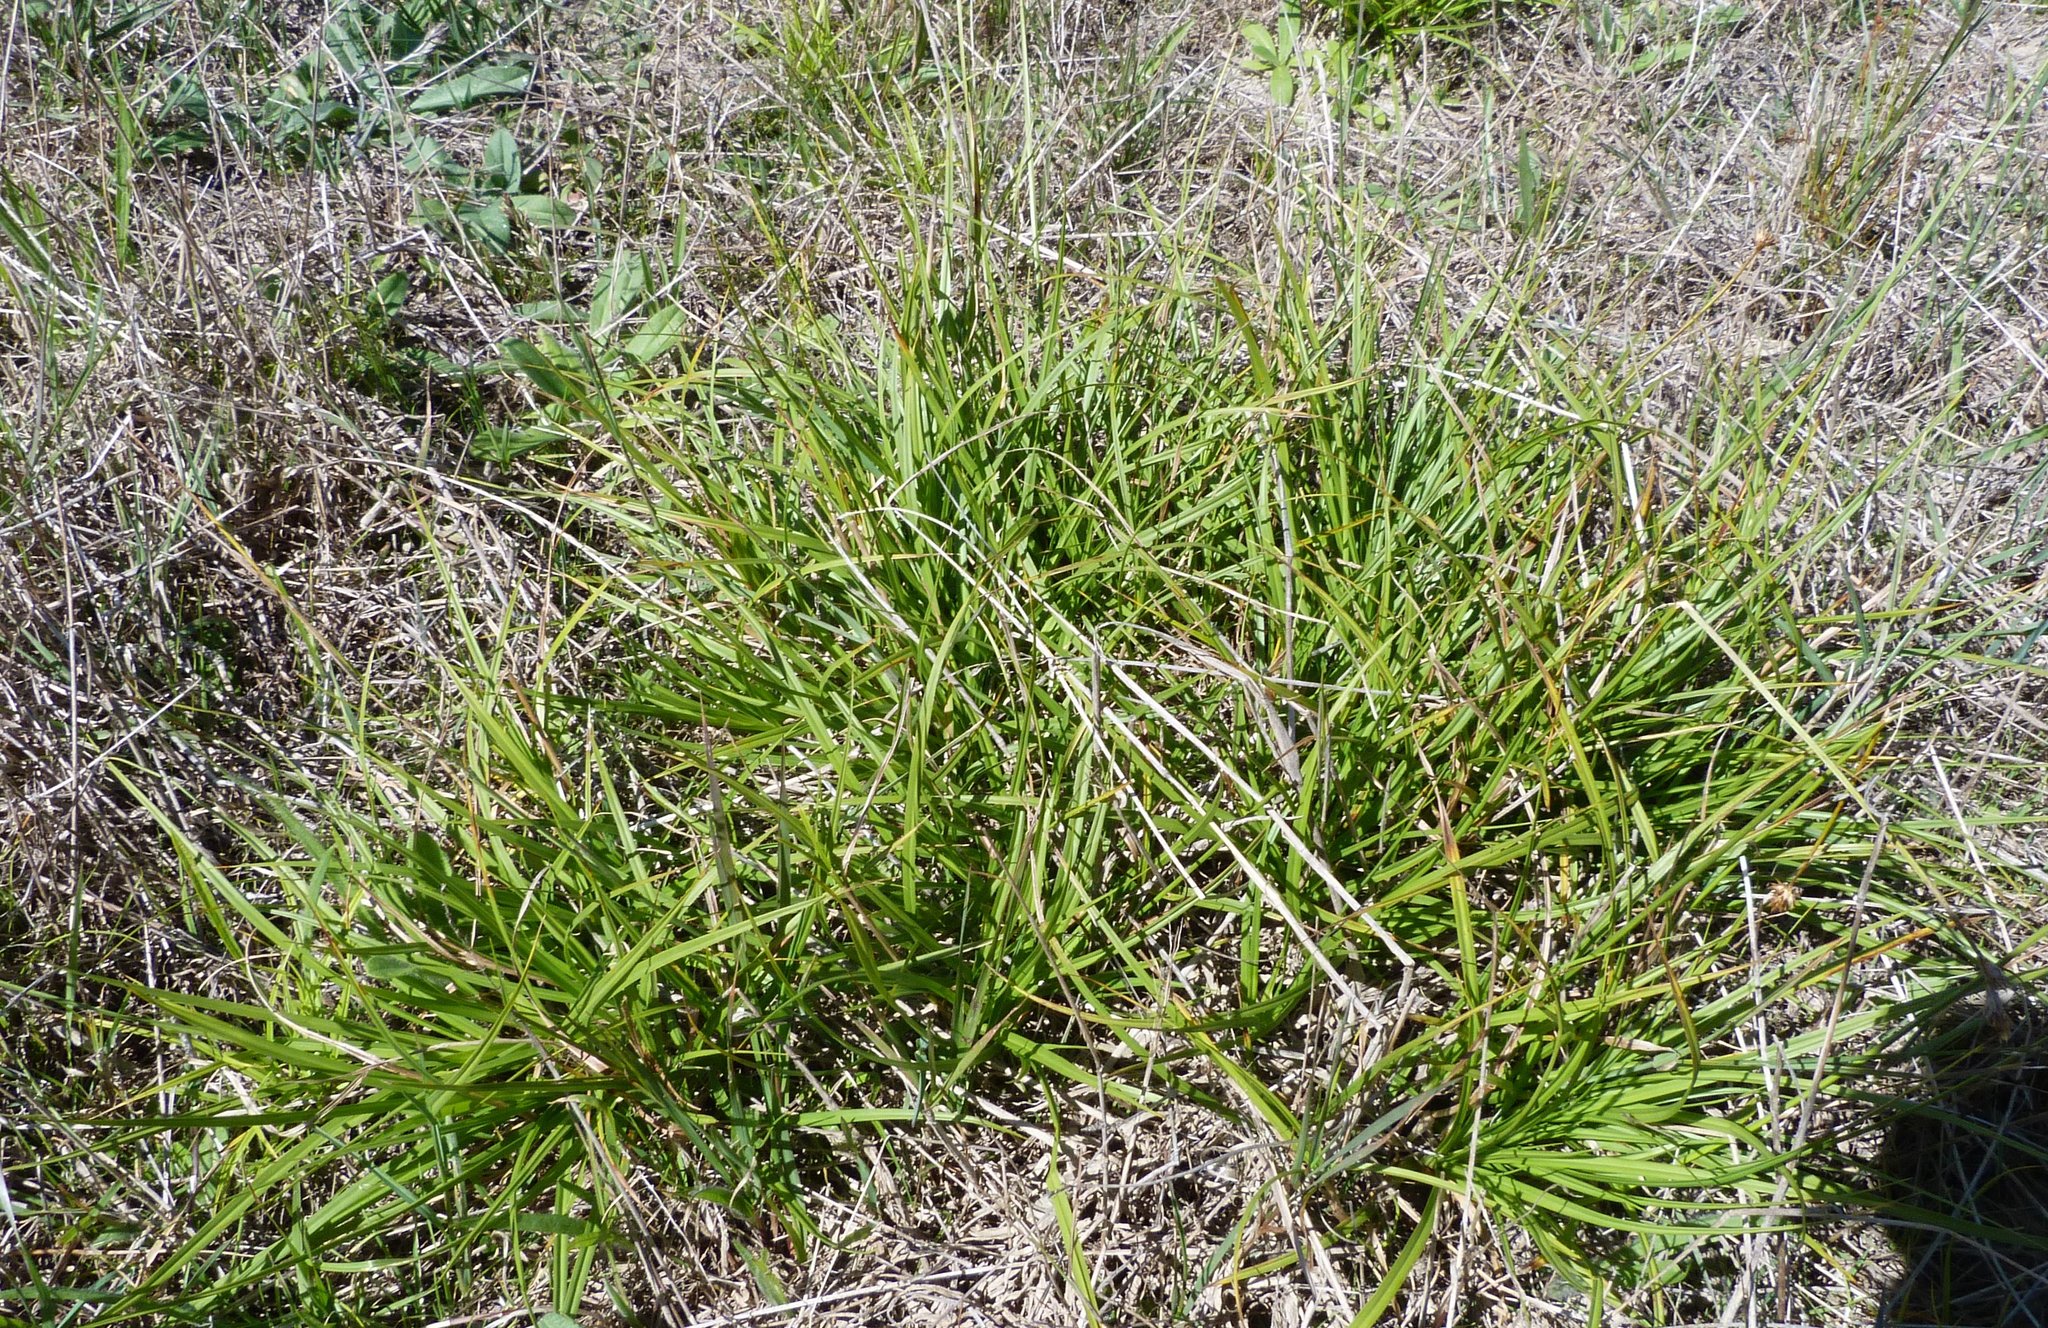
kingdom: Plantae
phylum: Tracheophyta
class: Liliopsida
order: Poales
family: Cyperaceae
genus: Carex
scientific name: Carex leporina
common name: Oval sedge
